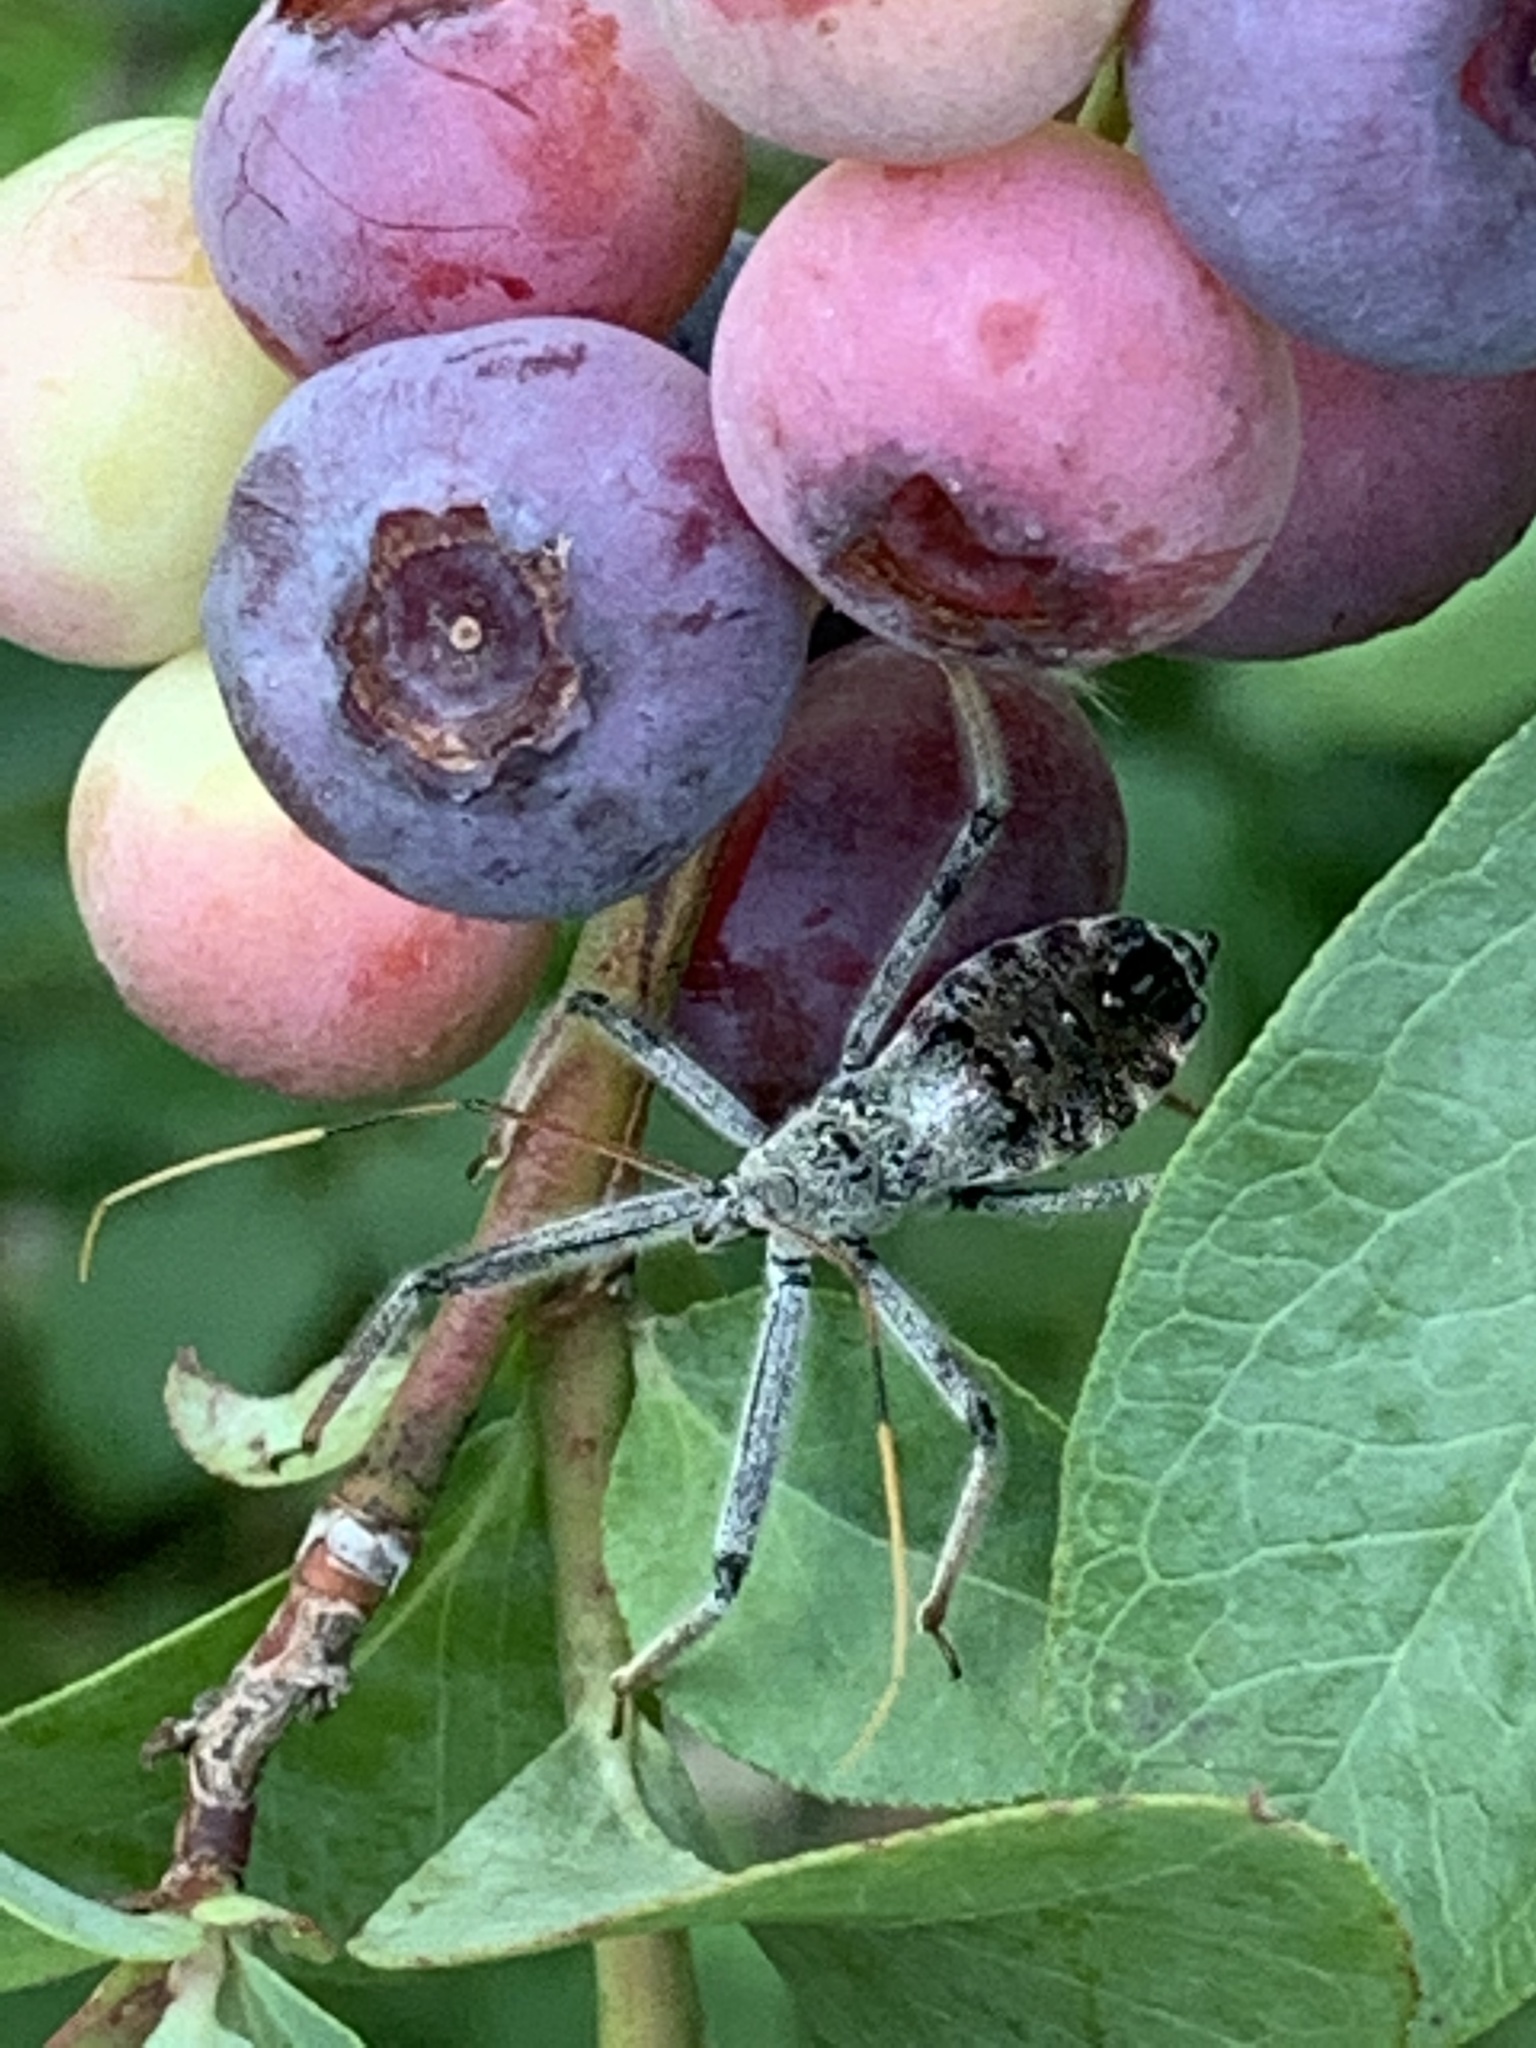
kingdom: Animalia
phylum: Arthropoda
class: Insecta
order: Hemiptera
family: Reduviidae
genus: Arilus
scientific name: Arilus cristatus
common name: North american wheel bug
